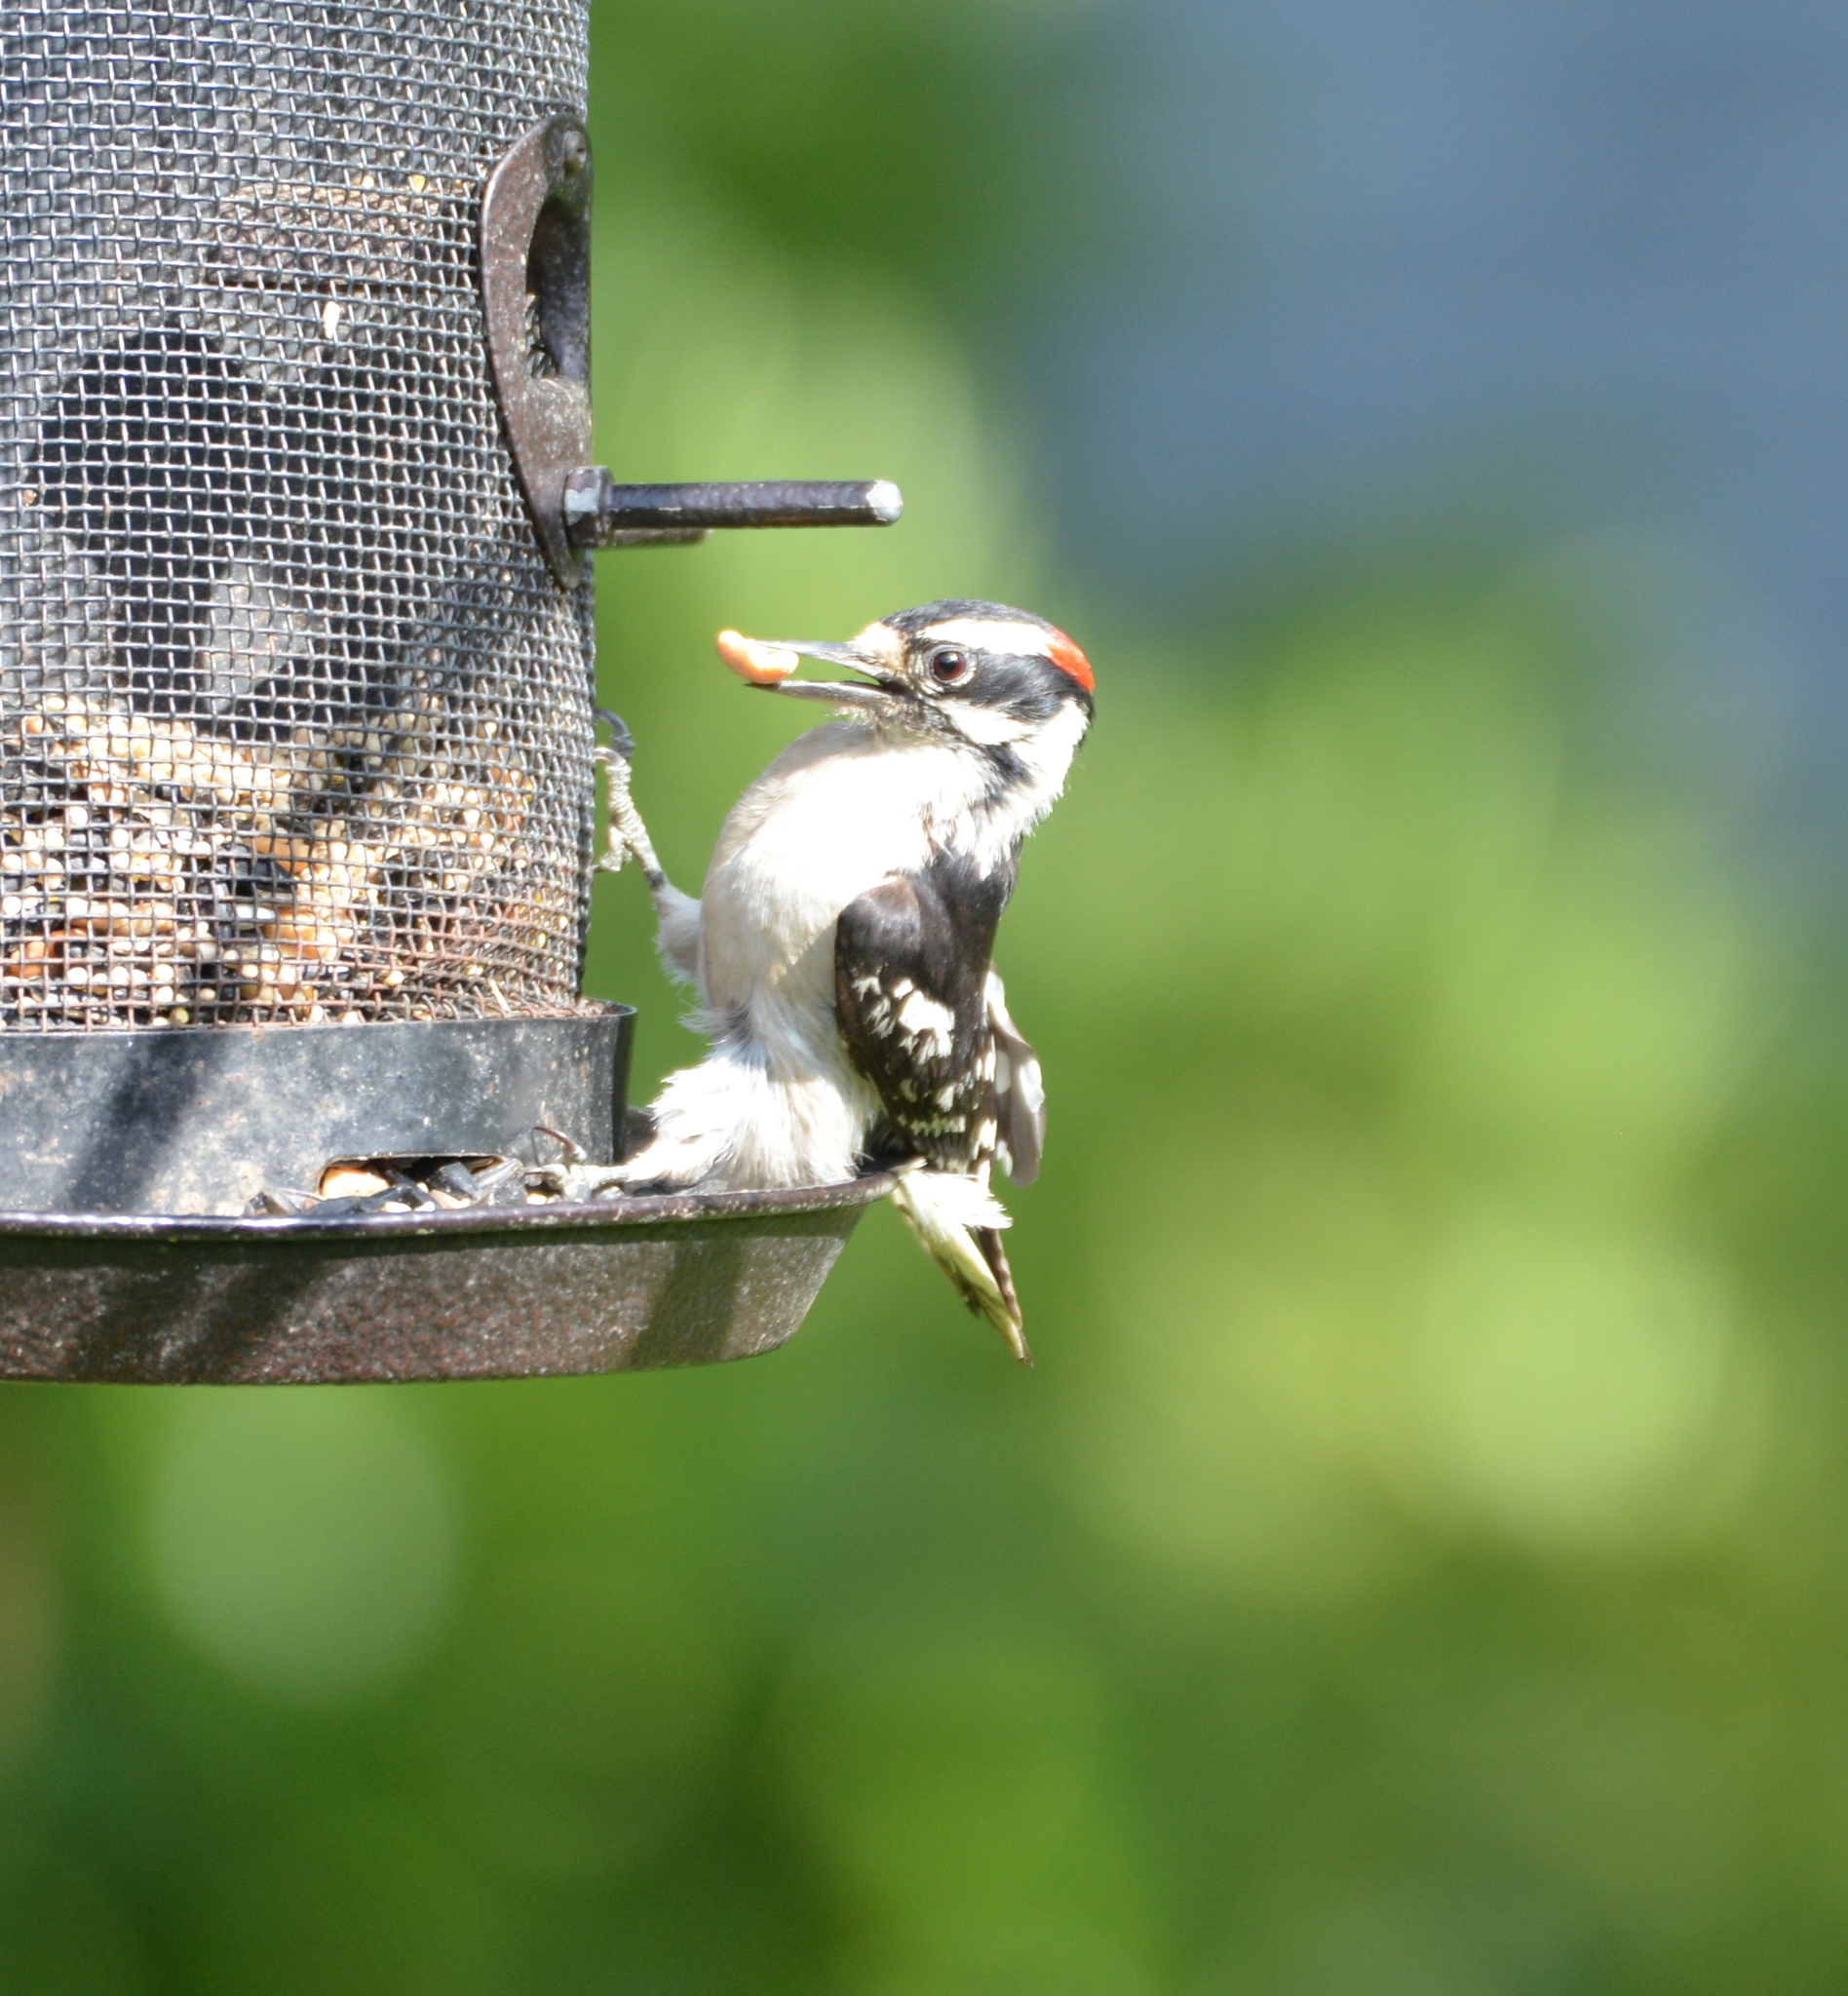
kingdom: Animalia
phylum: Chordata
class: Aves
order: Piciformes
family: Picidae
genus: Dryobates
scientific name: Dryobates pubescens
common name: Downy woodpecker
